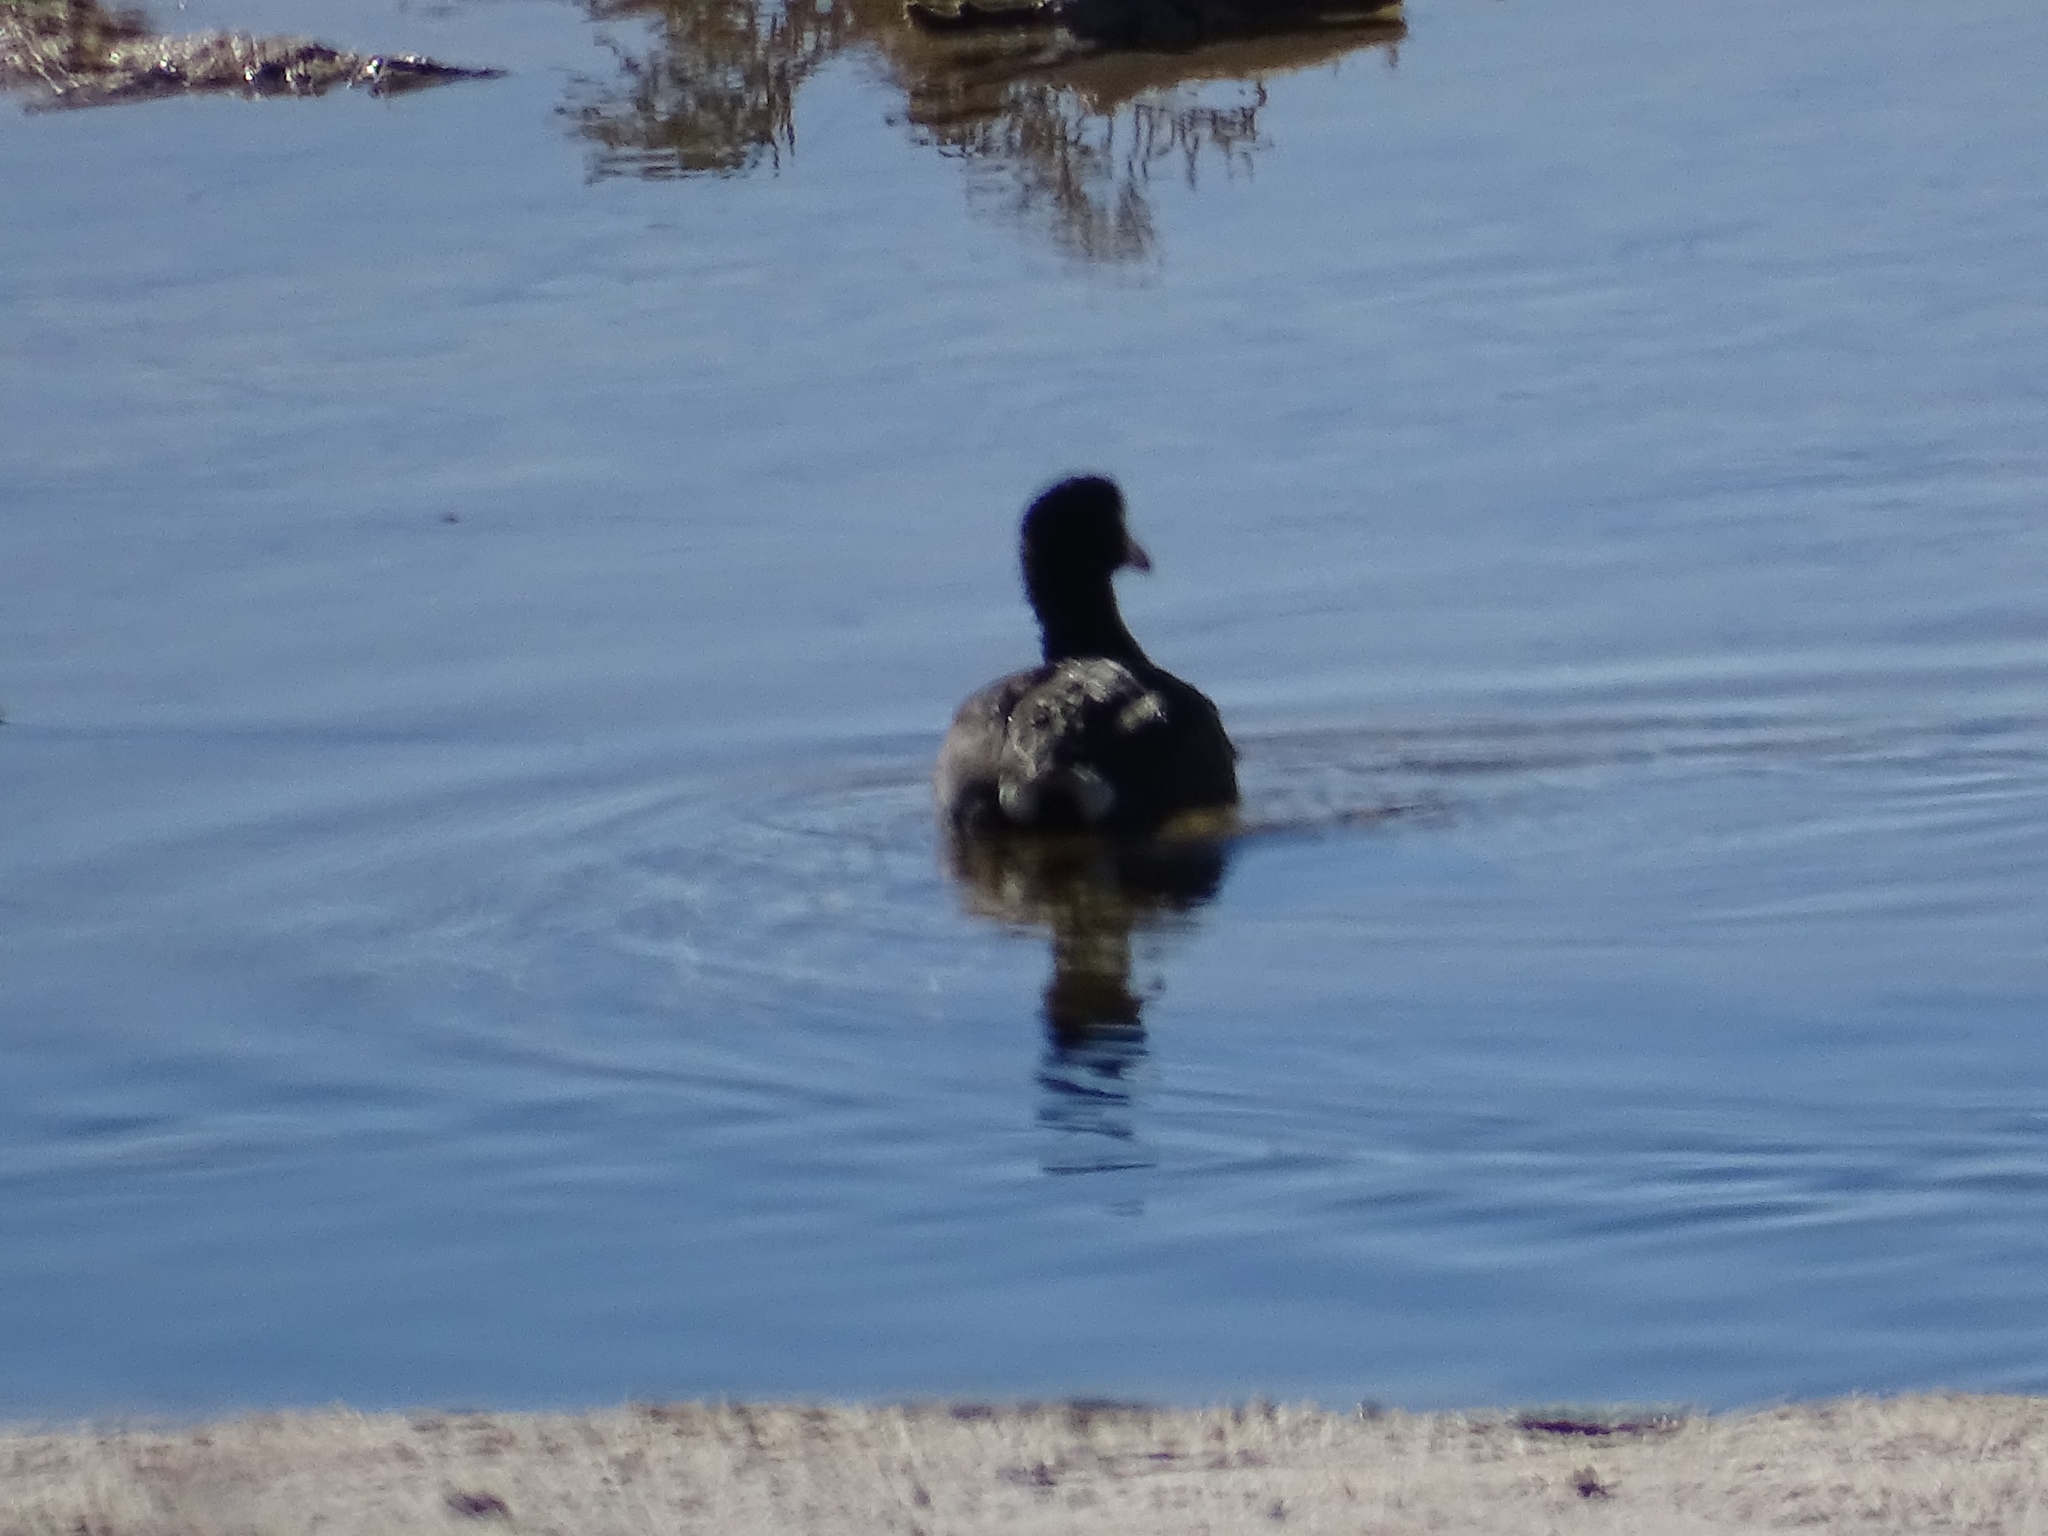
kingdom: Animalia
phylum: Chordata
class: Aves
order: Gruiformes
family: Rallidae
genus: Fulica
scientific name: Fulica americana
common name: American coot
